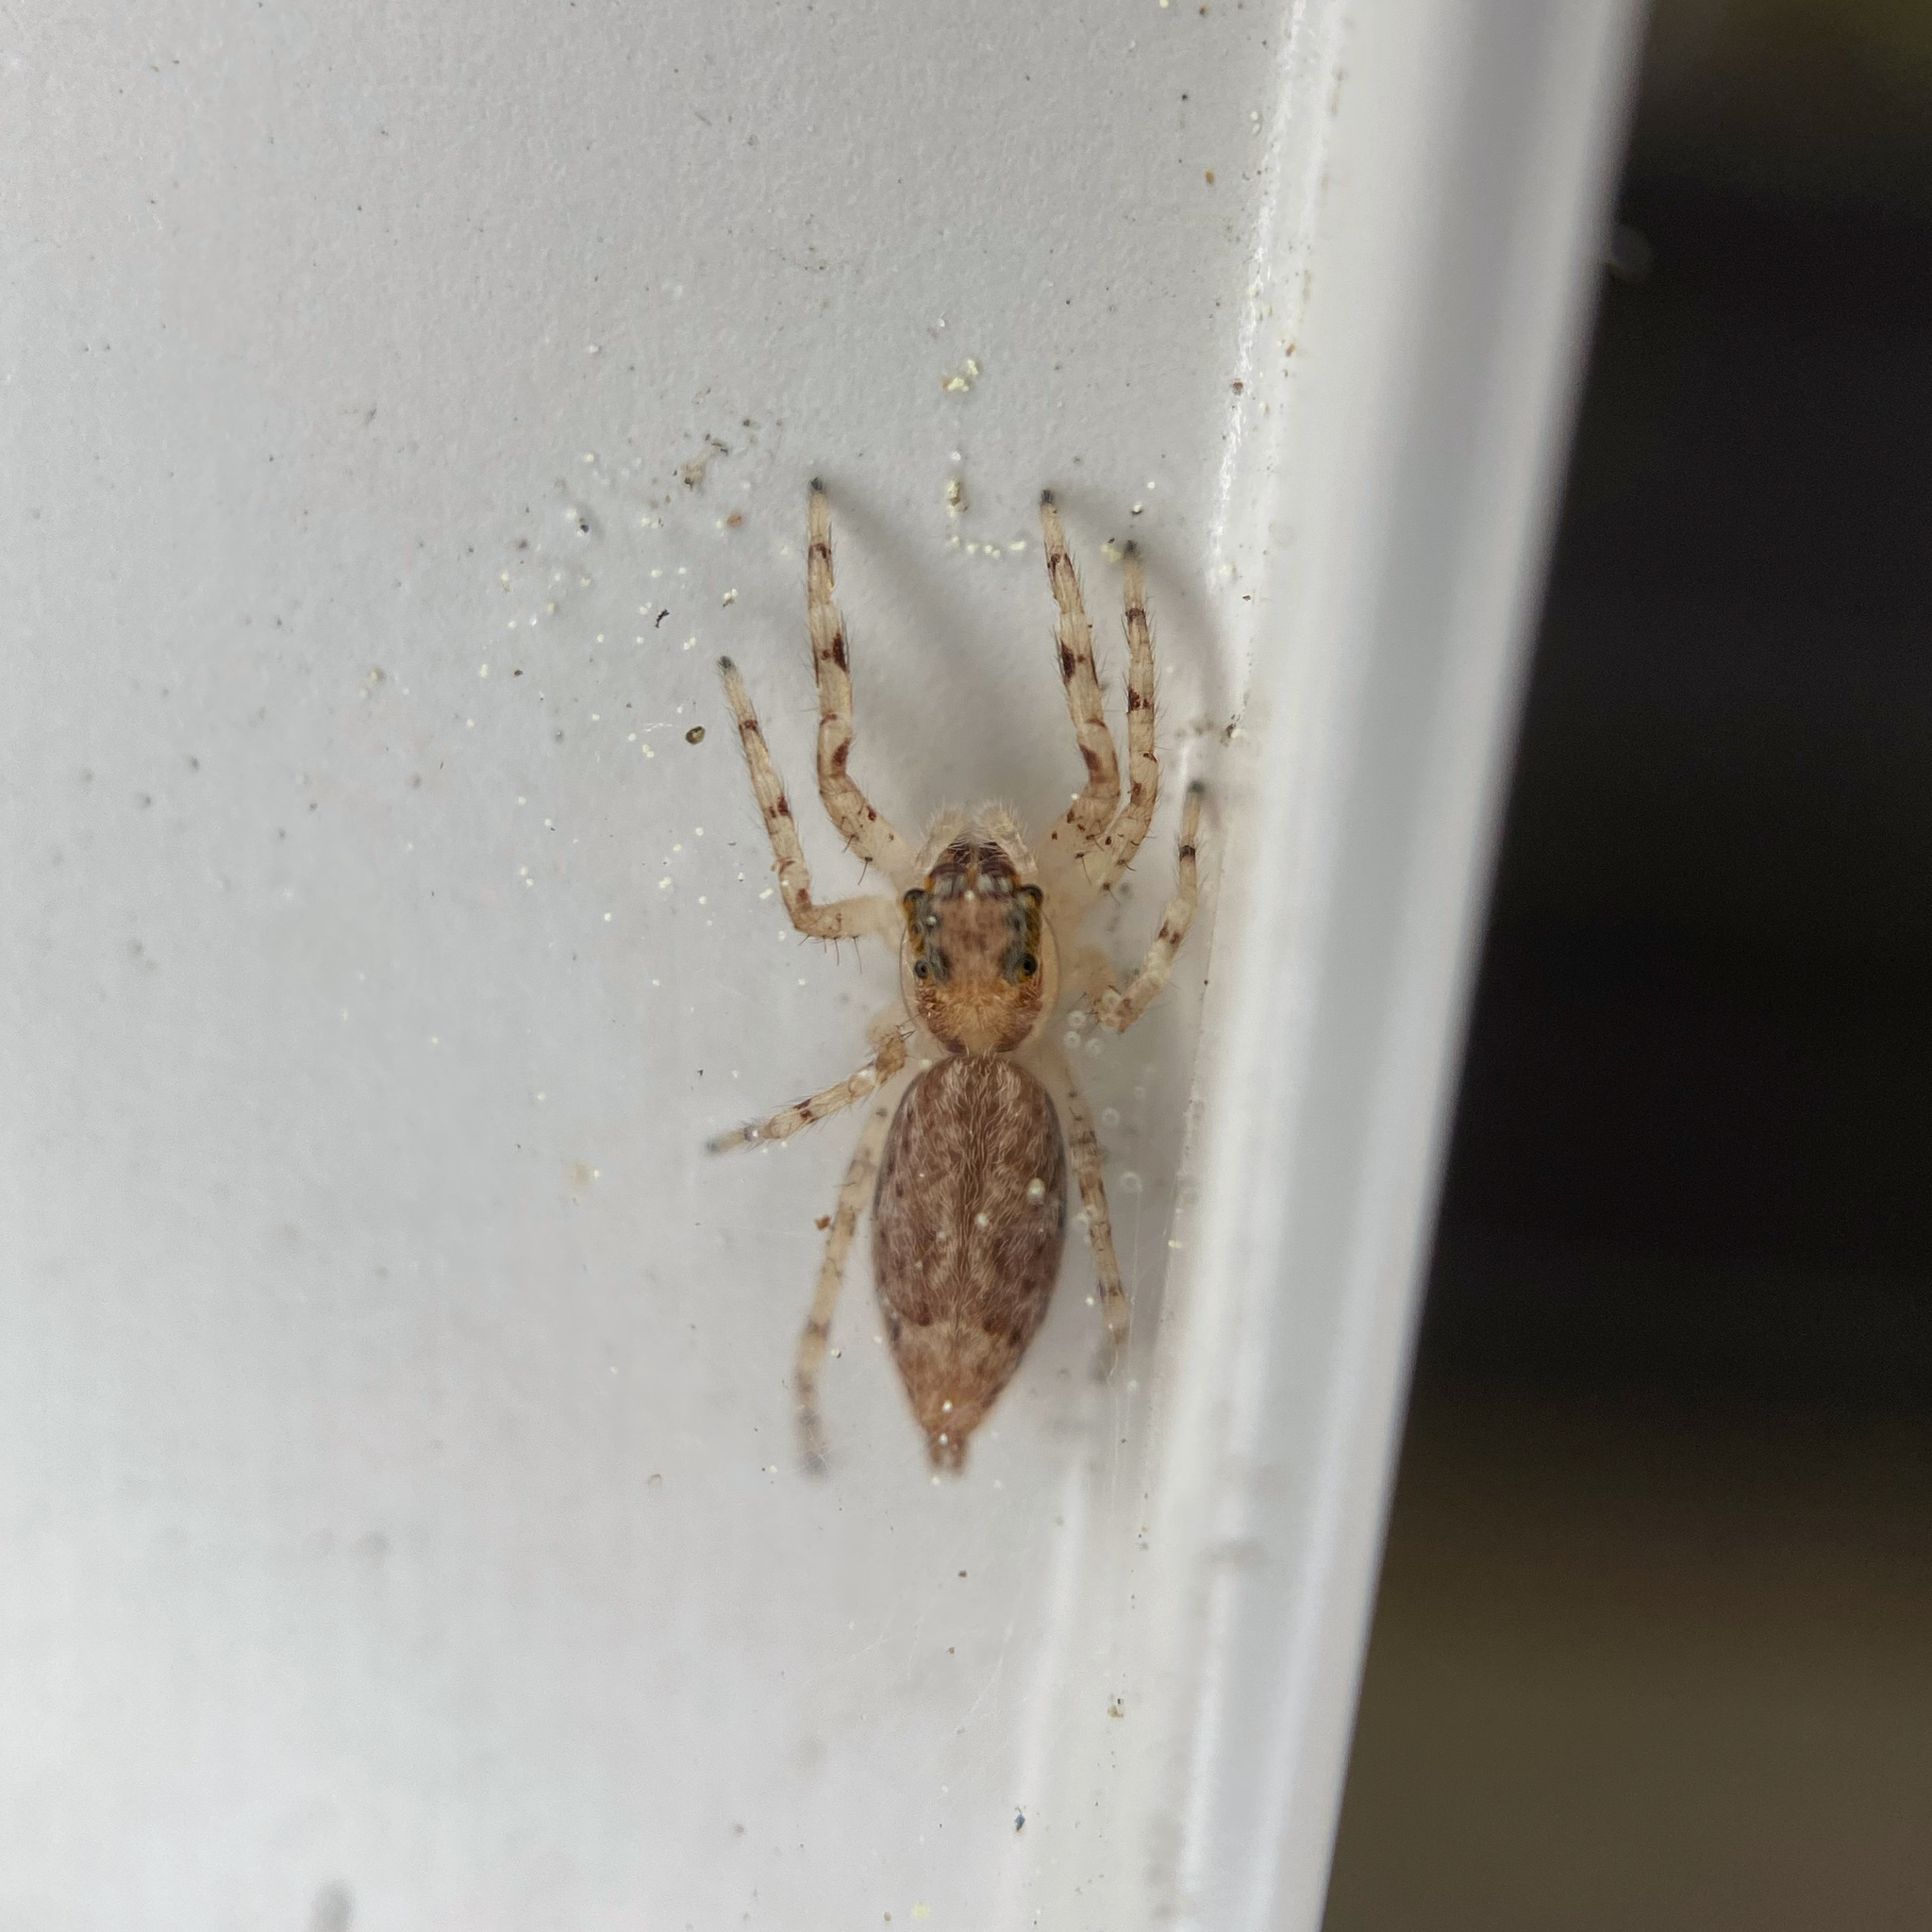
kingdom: Animalia
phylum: Arthropoda
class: Arachnida
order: Araneae
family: Salticidae
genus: Helpis
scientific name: Helpis minitabunda
